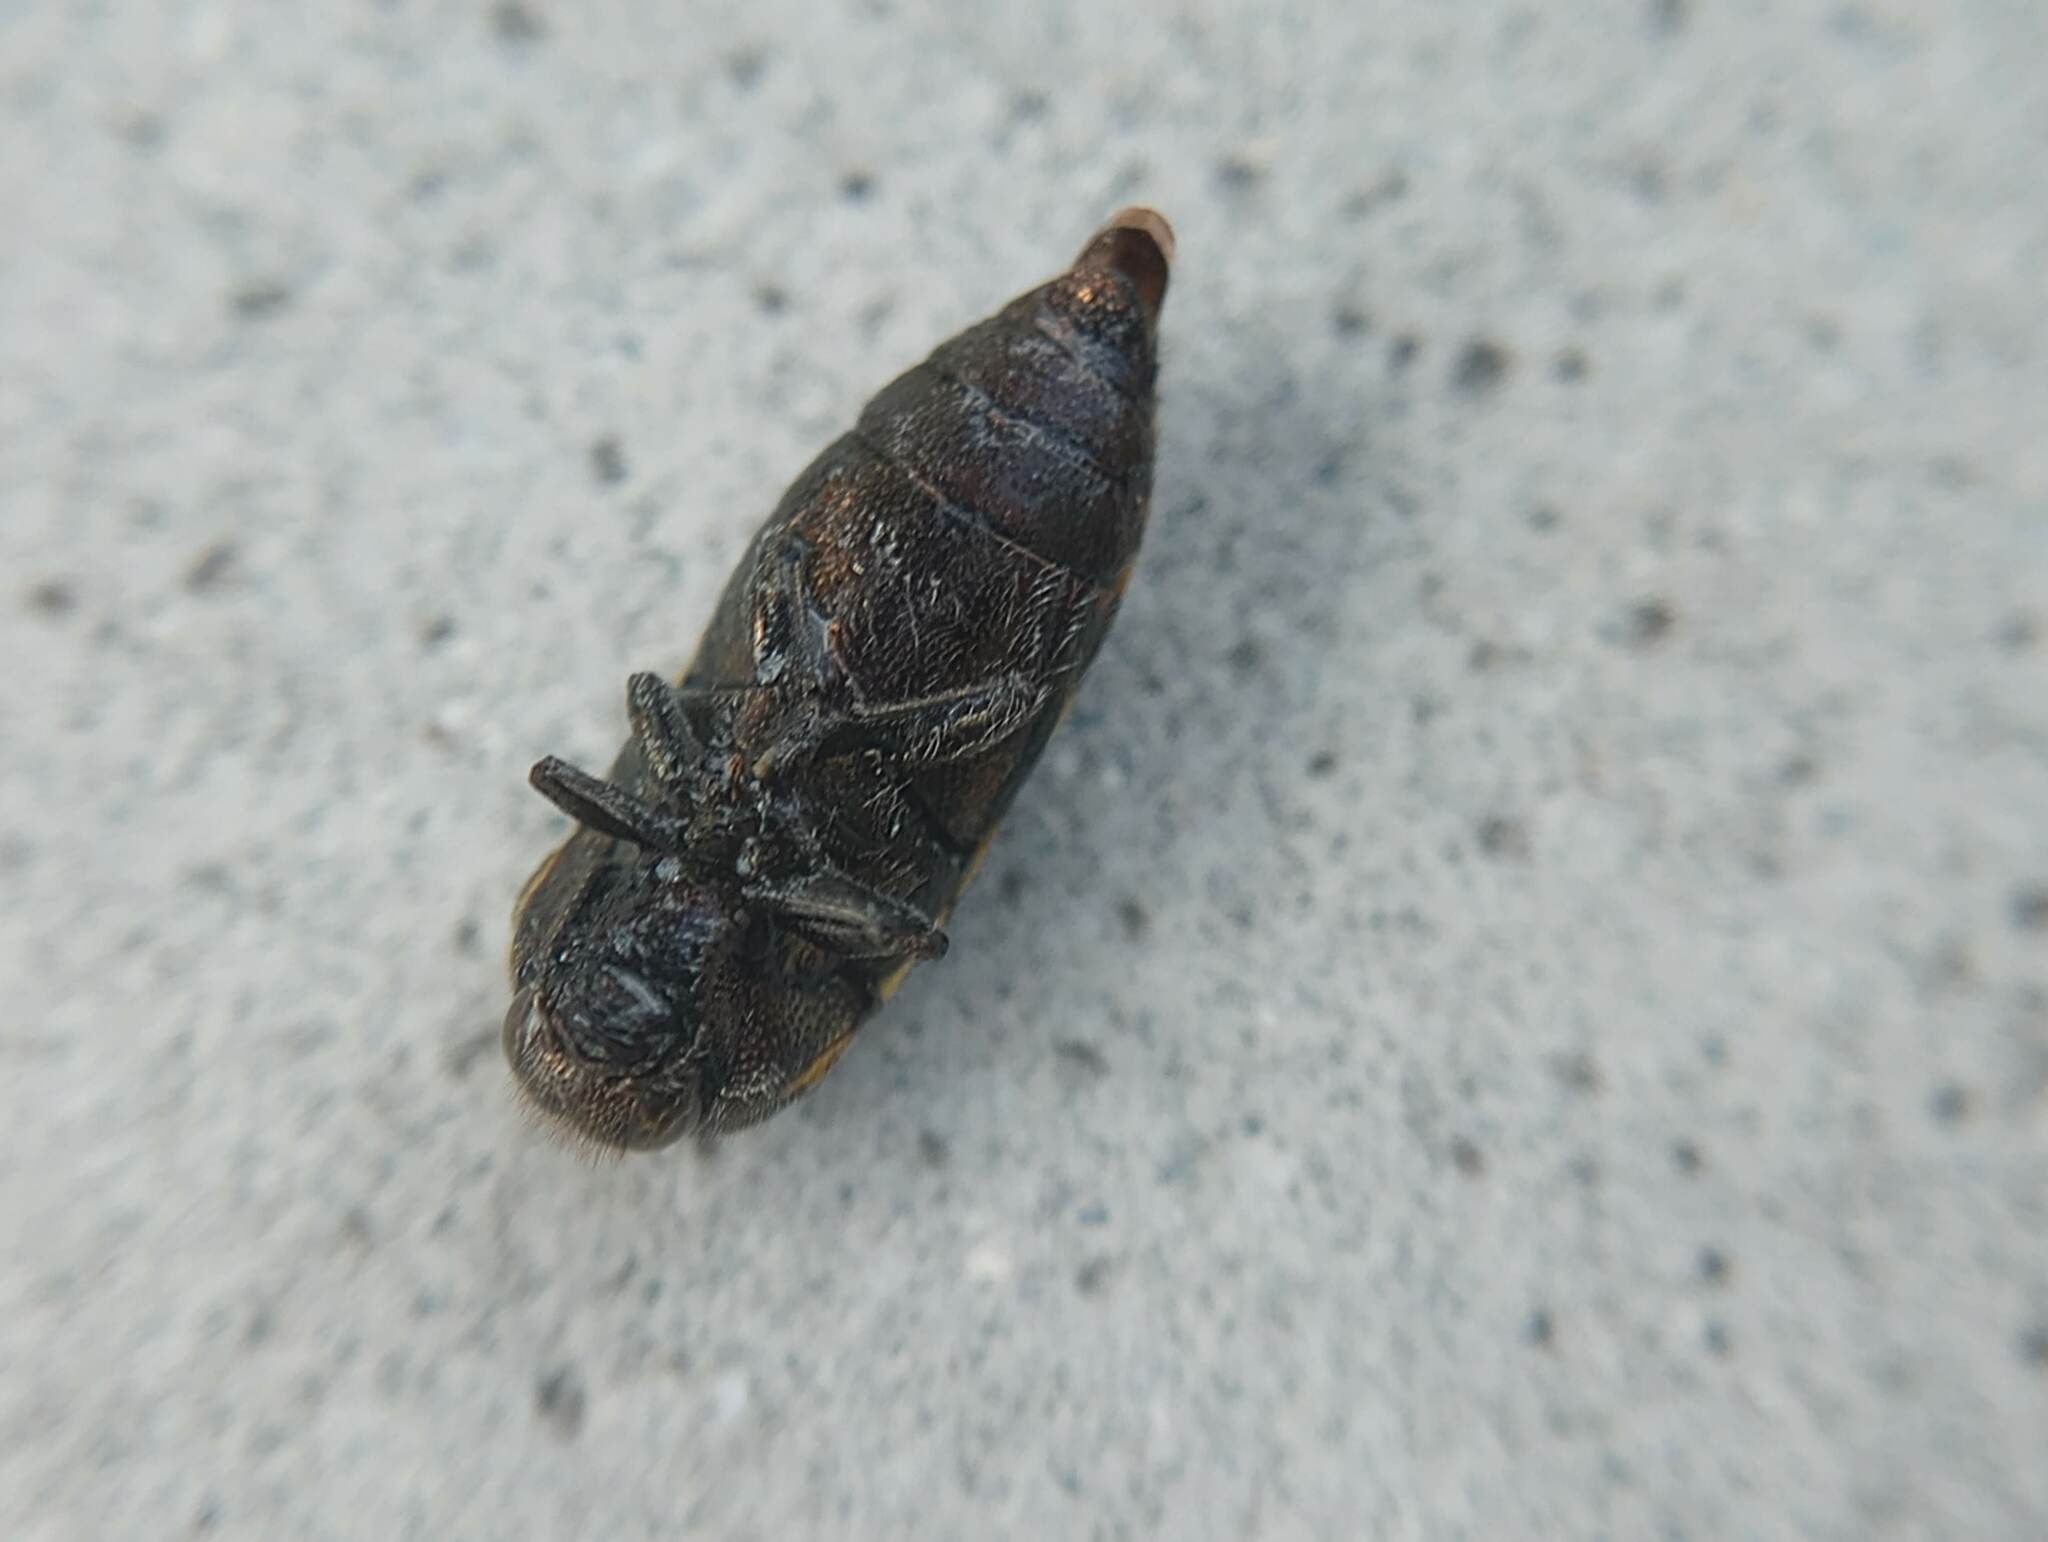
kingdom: Animalia
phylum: Arthropoda
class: Insecta
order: Coleoptera
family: Buprestidae
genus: Acmaeodera
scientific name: Acmaeodera mixta
